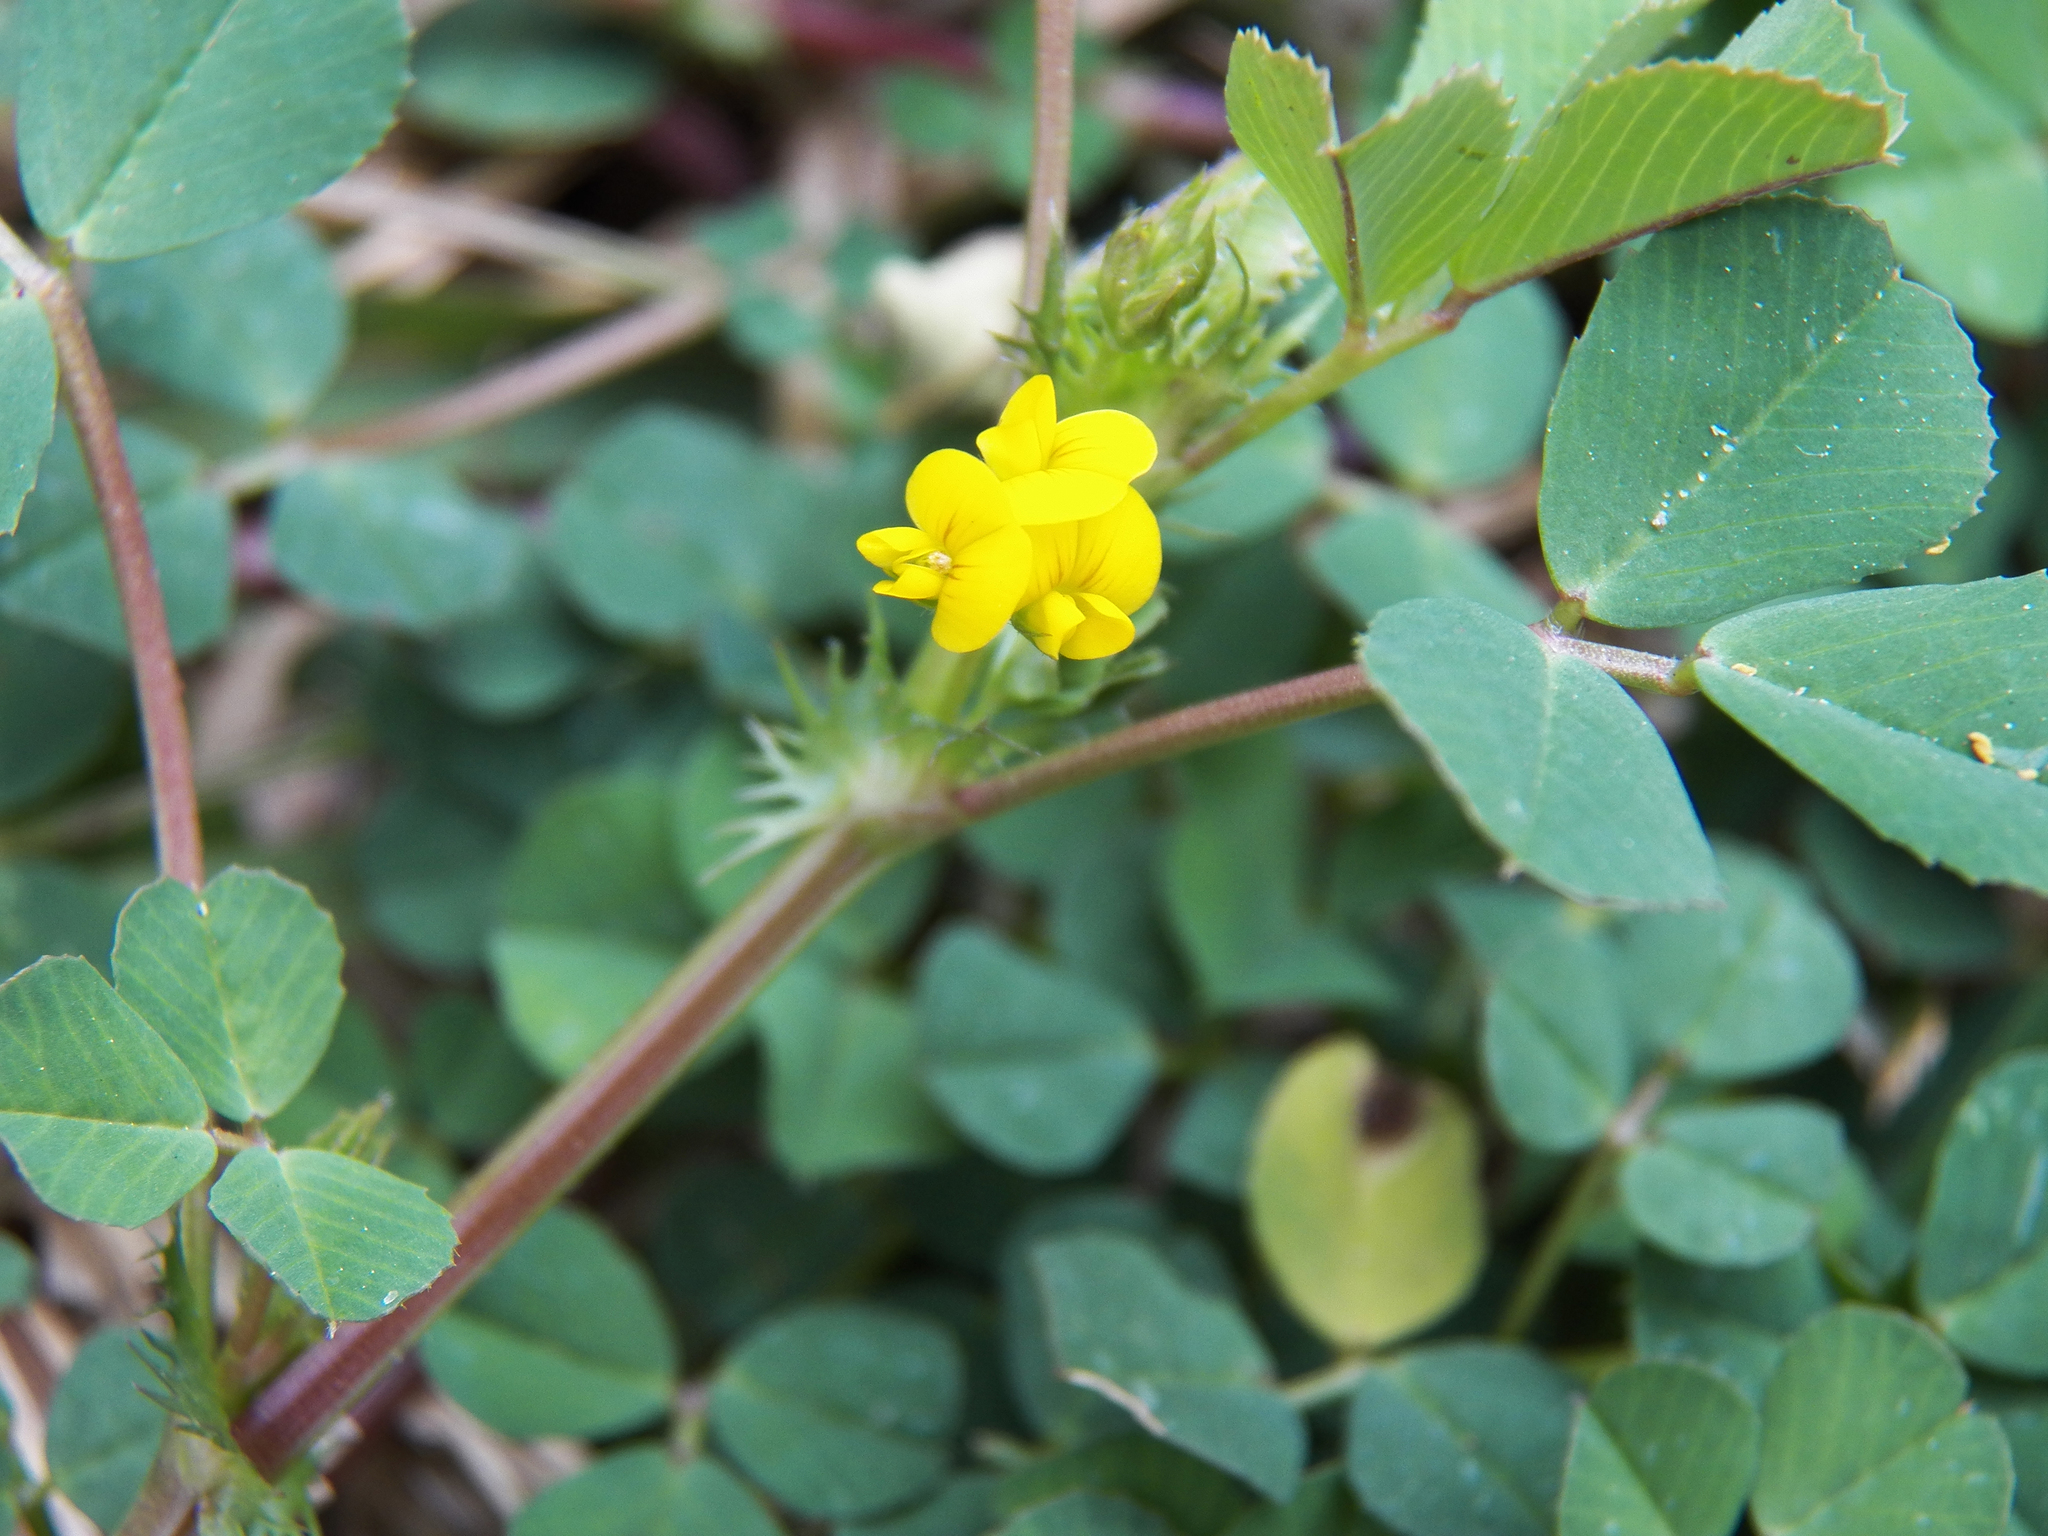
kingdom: Plantae
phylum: Tracheophyta
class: Magnoliopsida
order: Fabales
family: Fabaceae
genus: Medicago
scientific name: Medicago polymorpha
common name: Burclover
